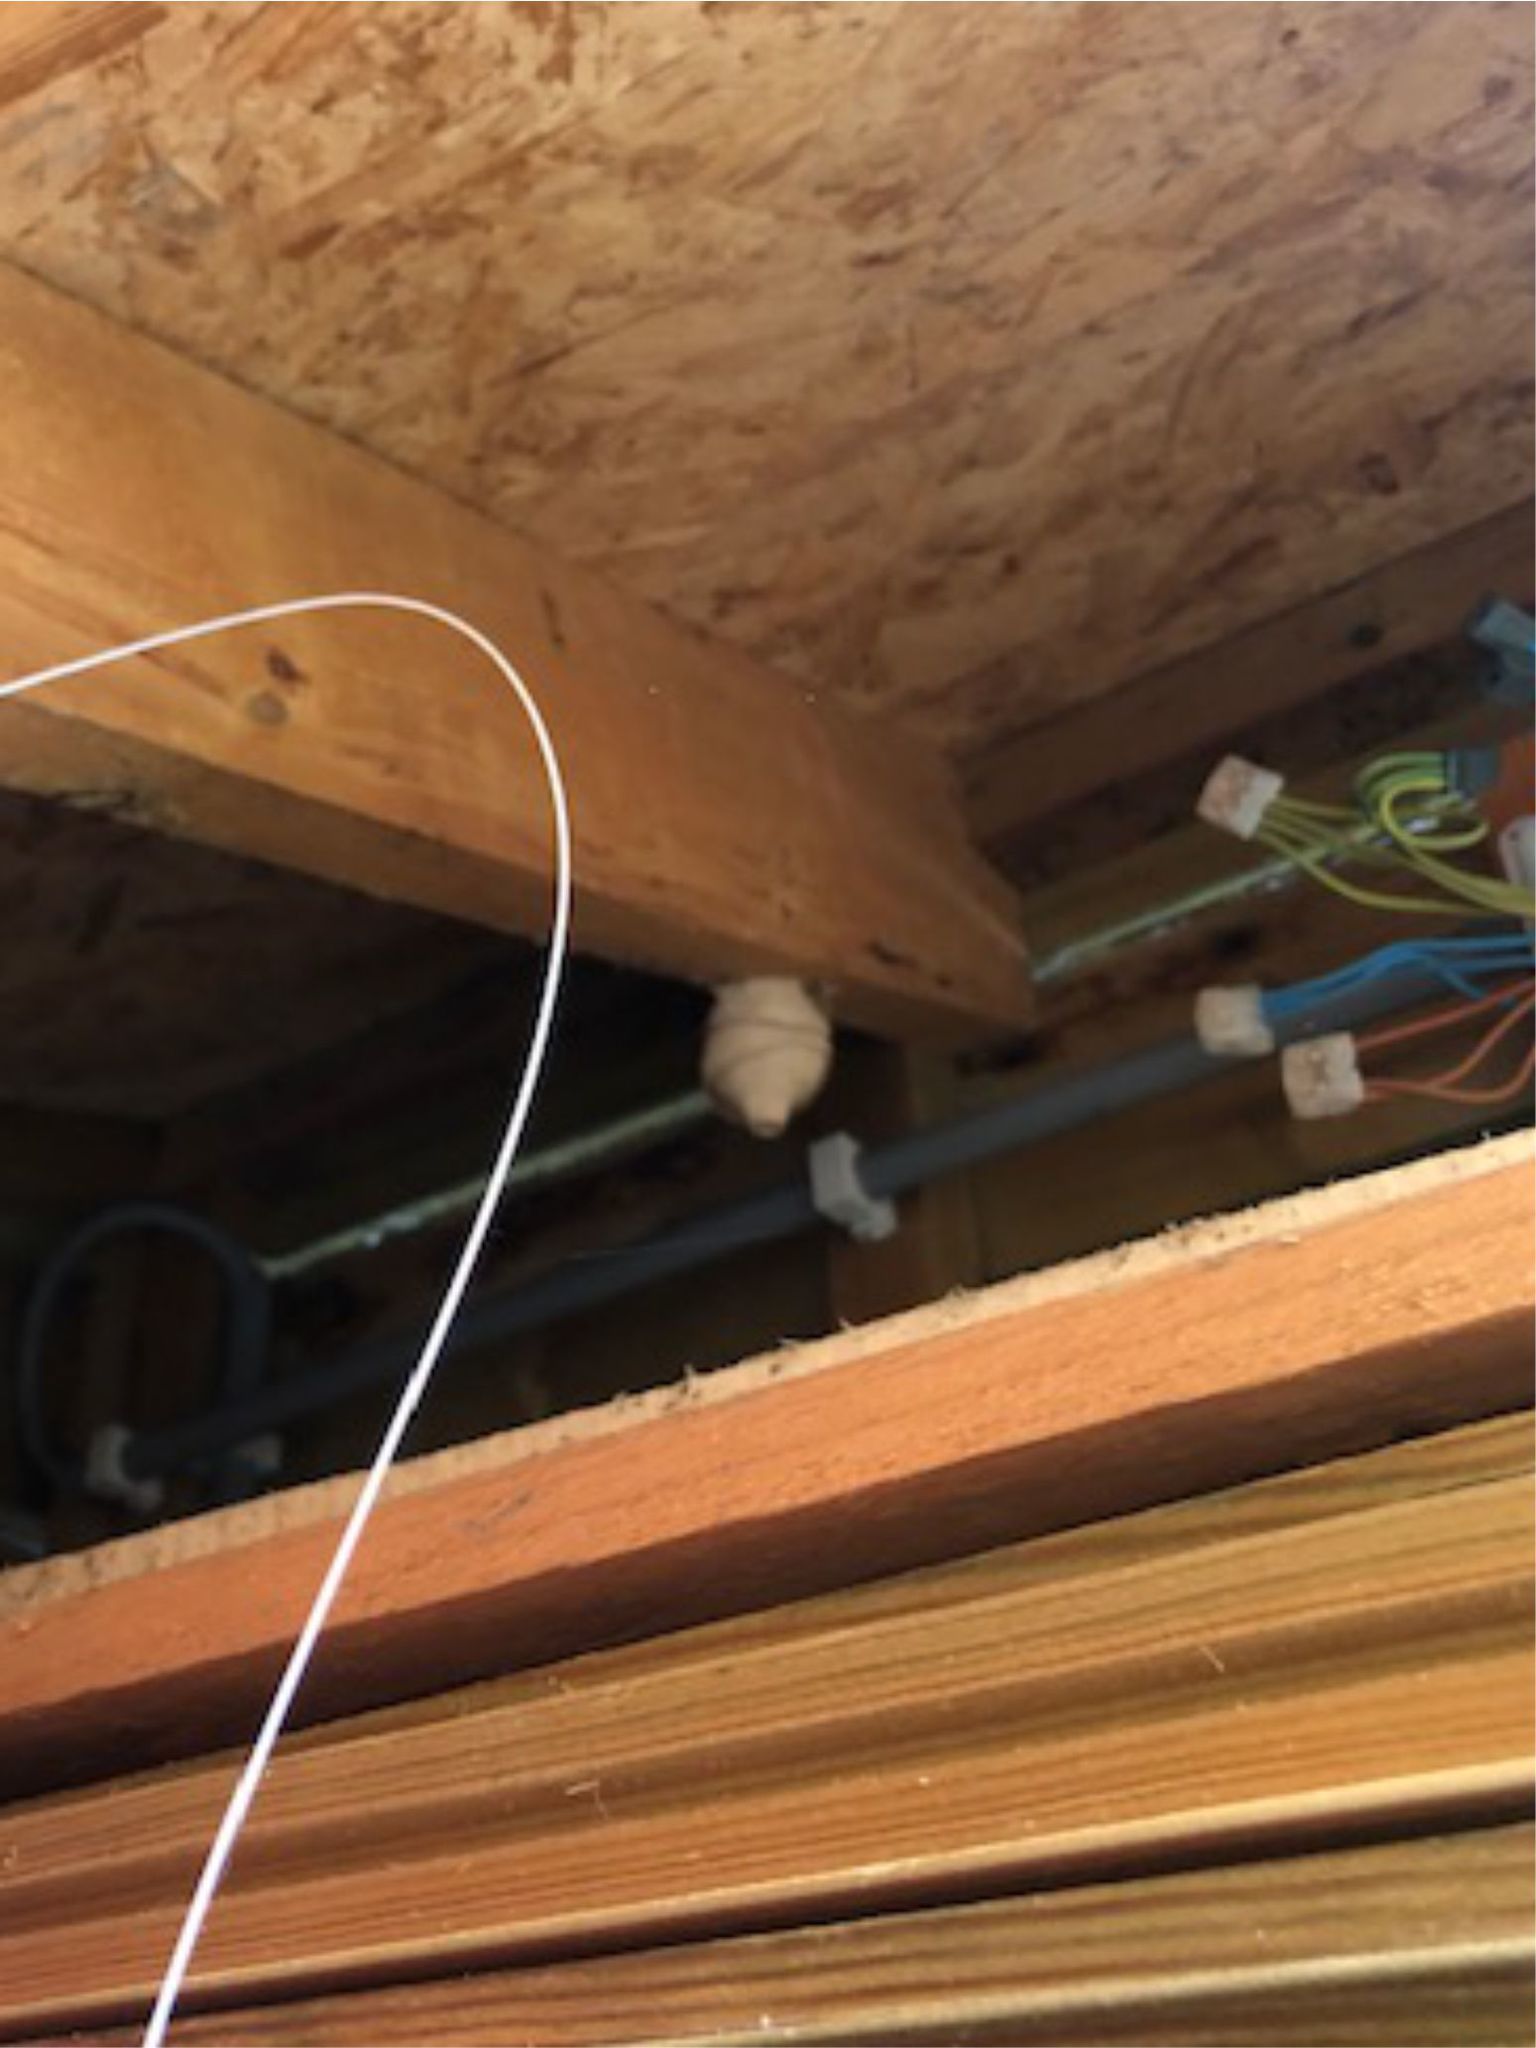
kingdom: Animalia
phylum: Arthropoda
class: Insecta
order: Hymenoptera
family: Vespidae
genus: Vespa
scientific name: Vespa velutina
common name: Asian hornet
